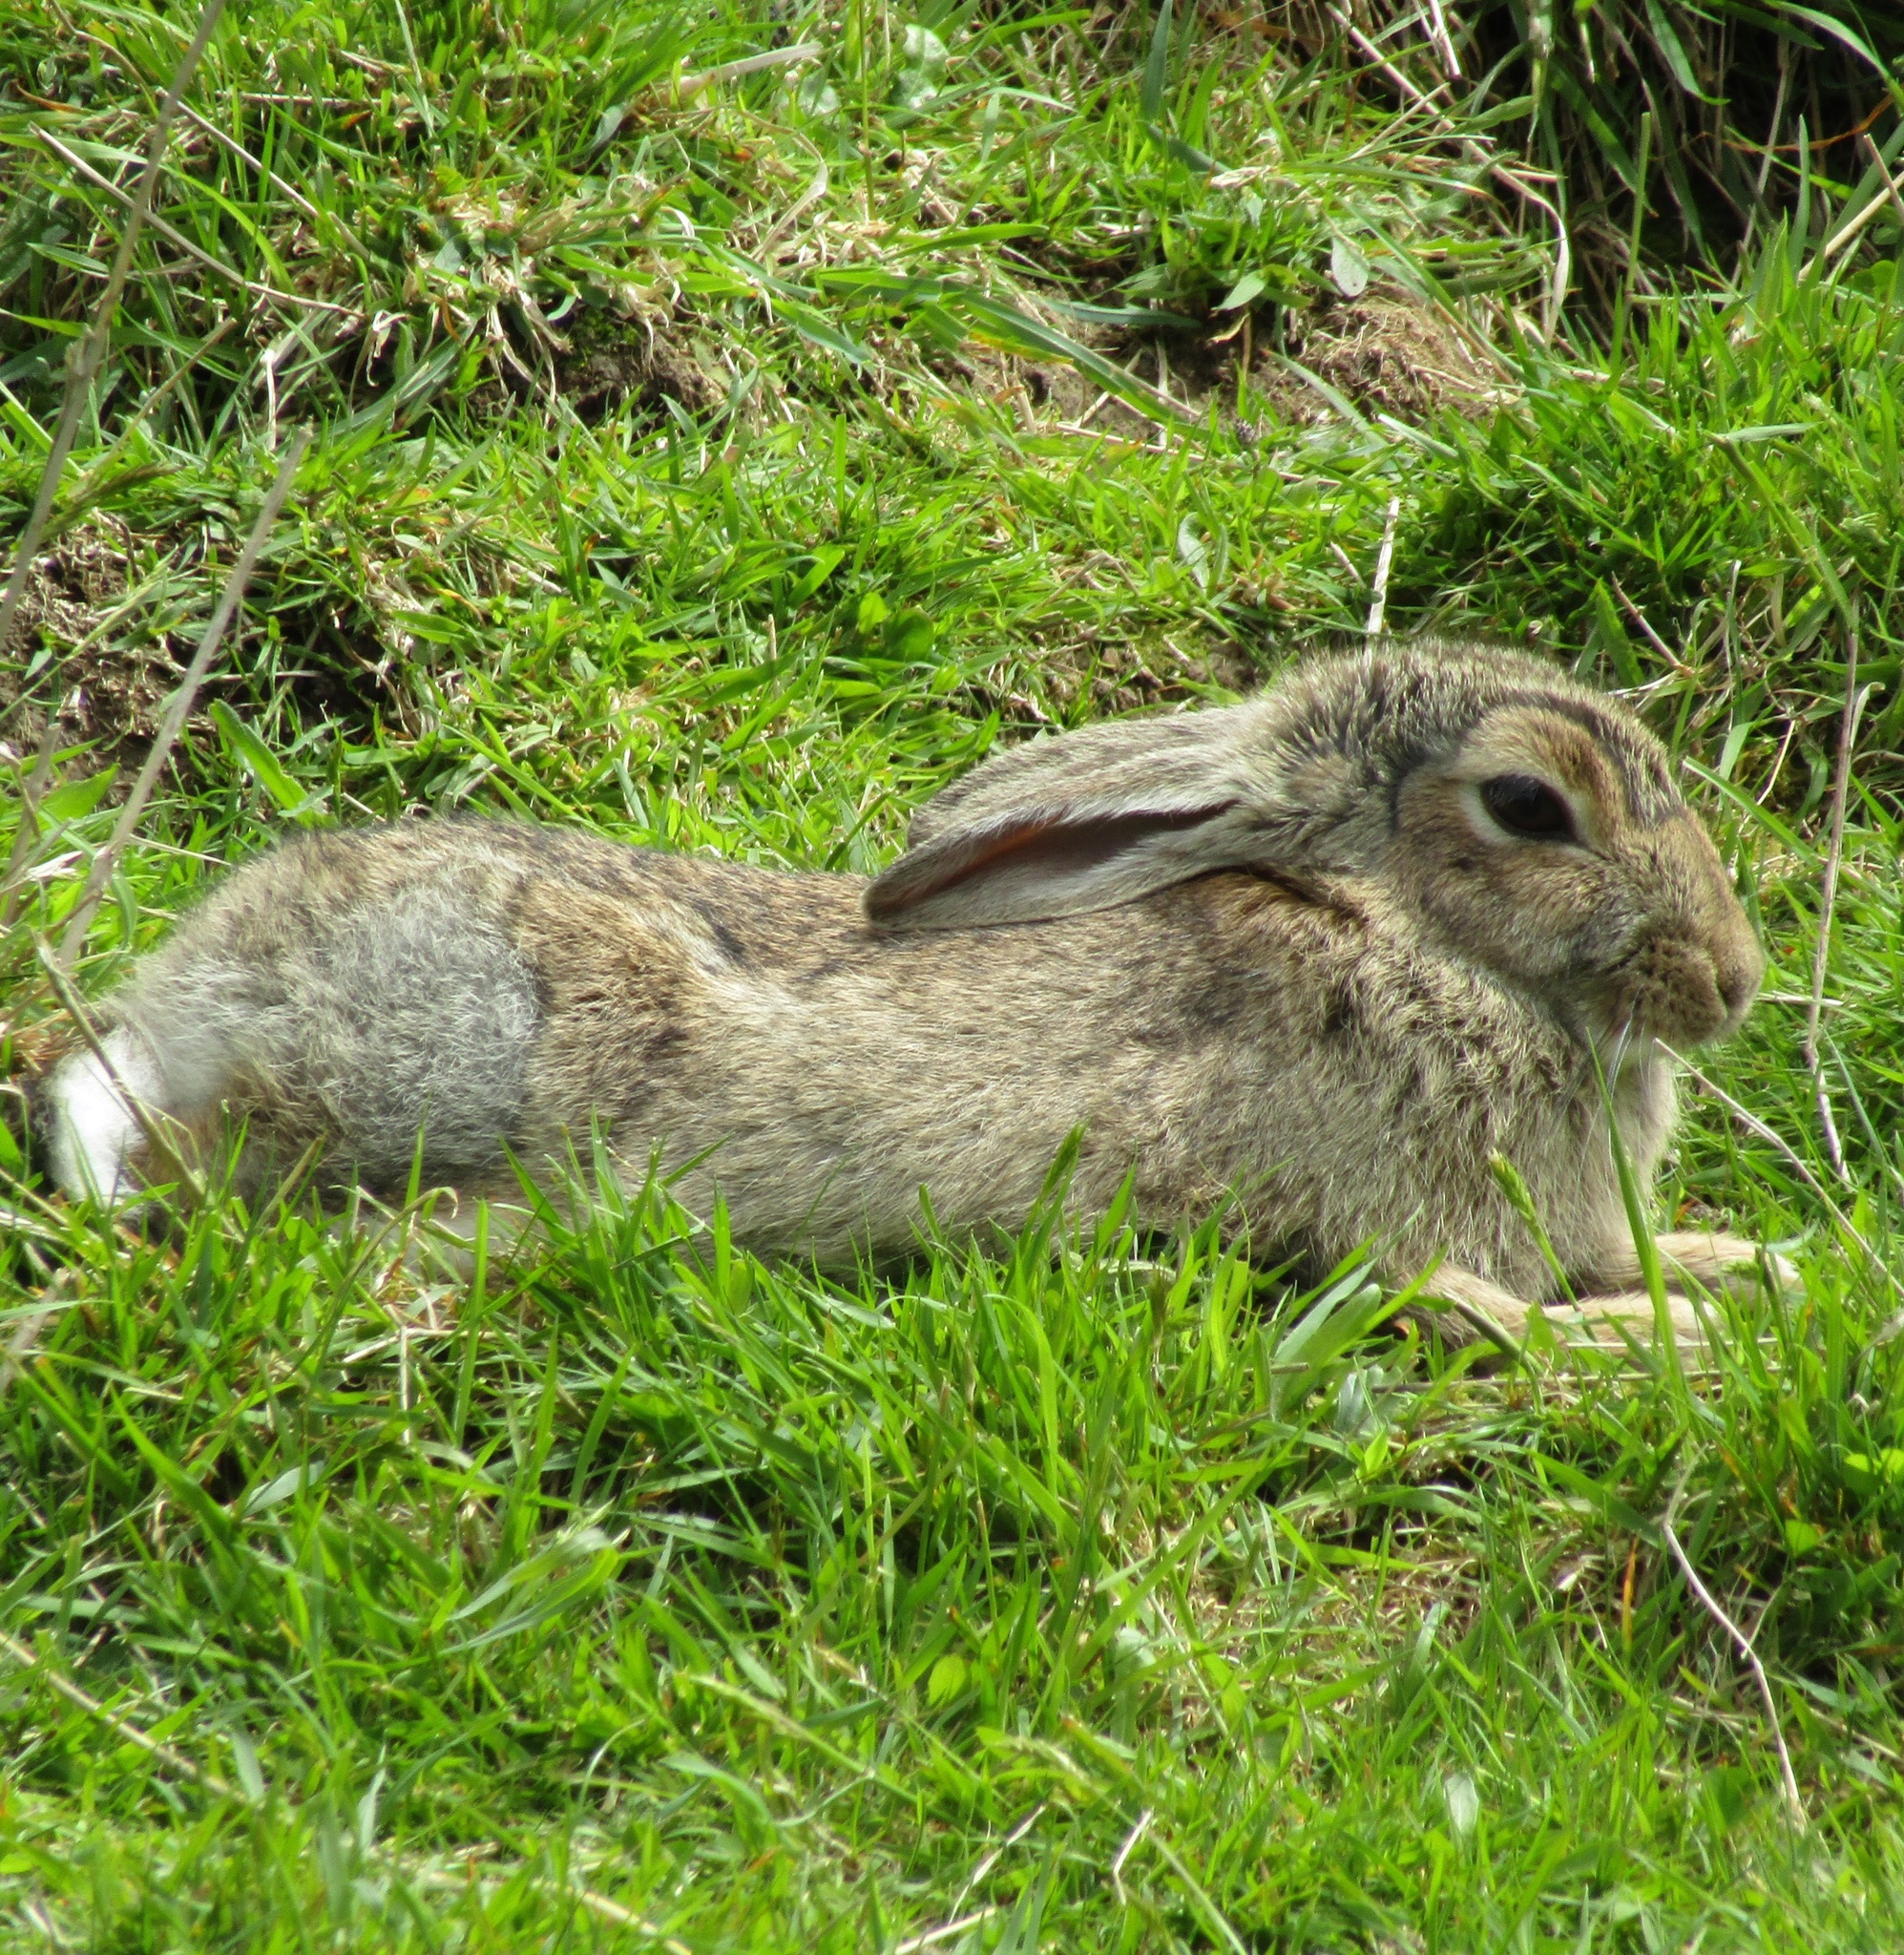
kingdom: Animalia
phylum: Chordata
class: Mammalia
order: Lagomorpha
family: Leporidae
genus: Oryctolagus
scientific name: Oryctolagus cuniculus
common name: European rabbit
